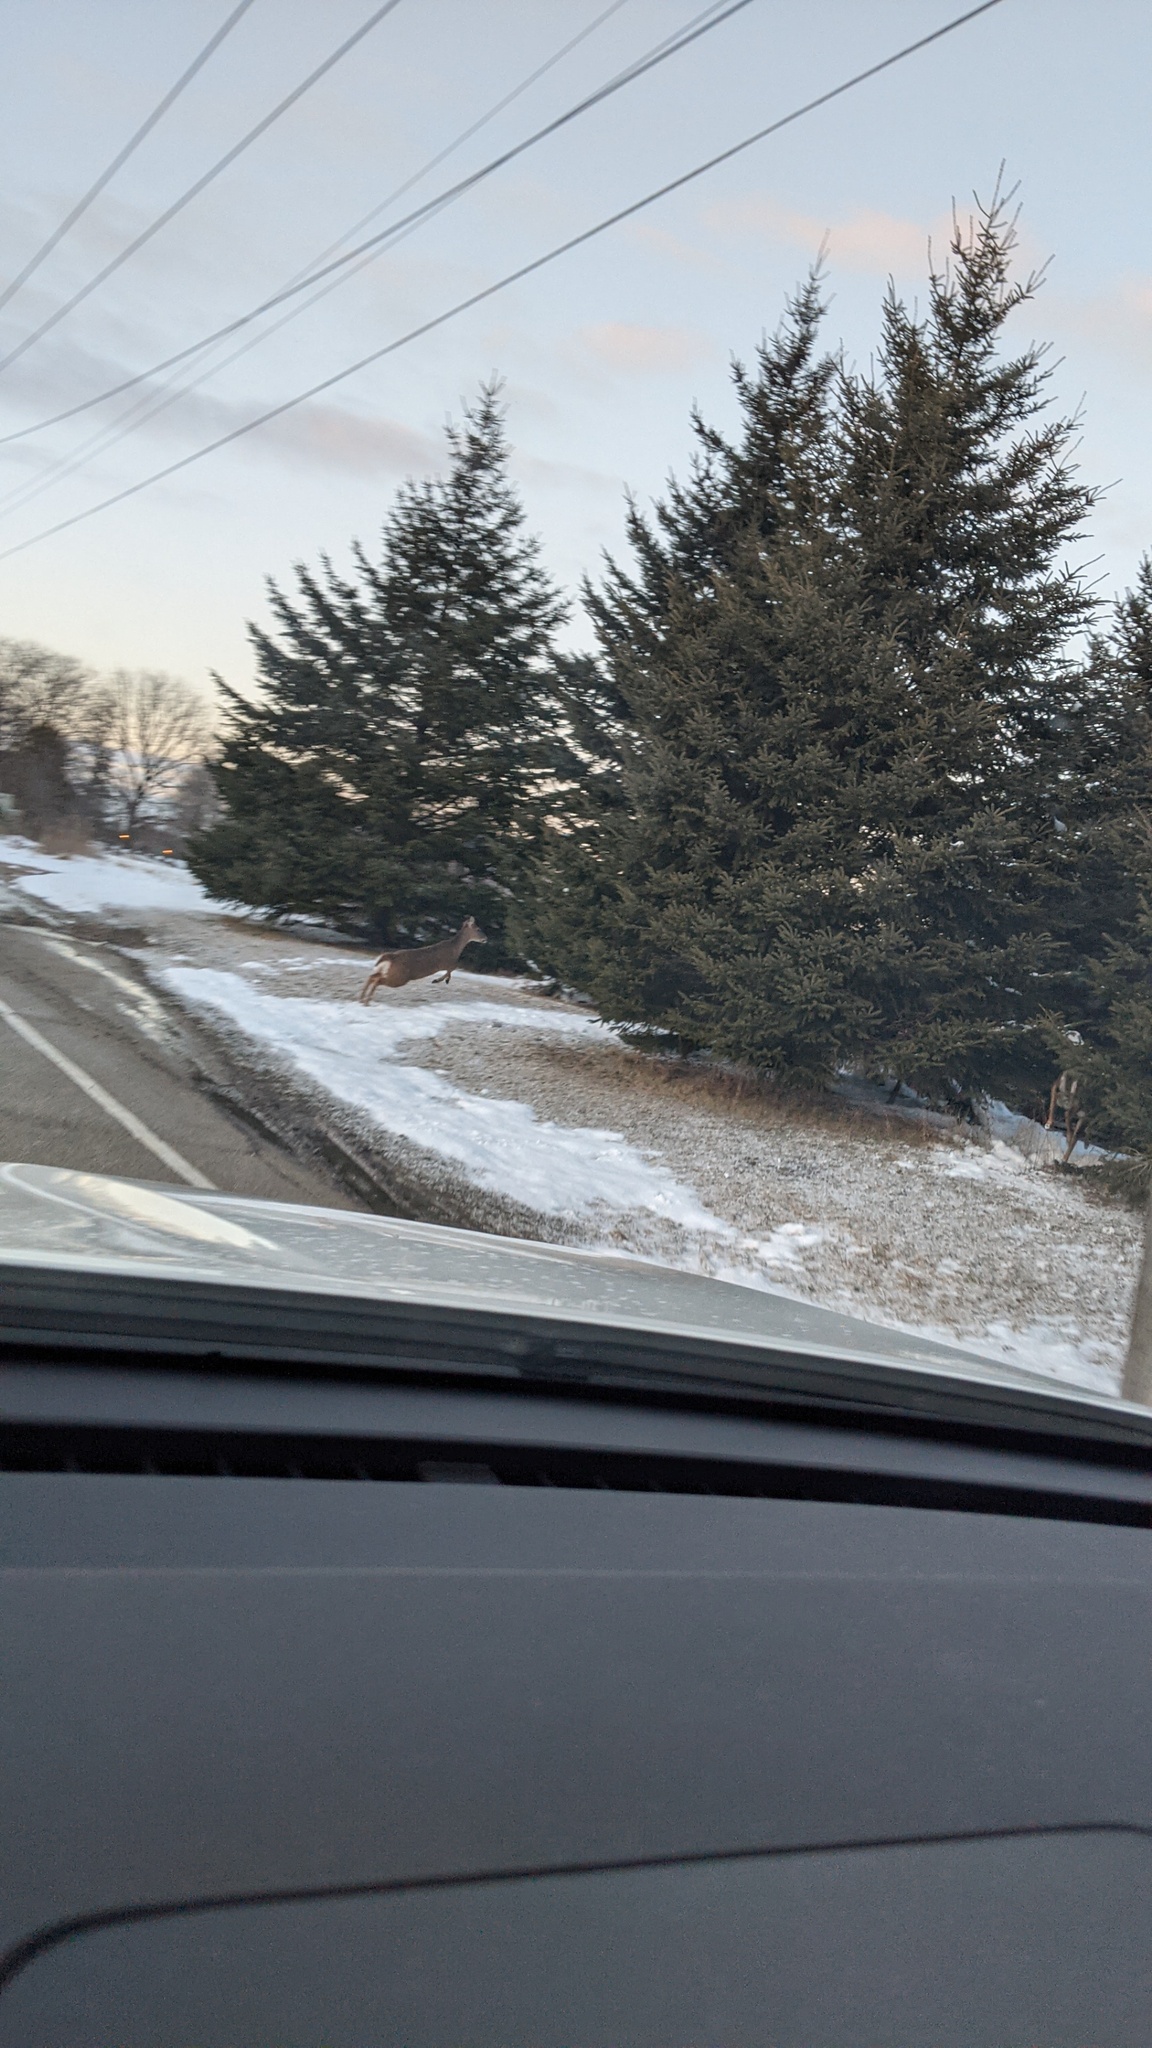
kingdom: Animalia
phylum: Chordata
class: Mammalia
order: Artiodactyla
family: Cervidae
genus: Odocoileus
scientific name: Odocoileus virginianus
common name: White-tailed deer
